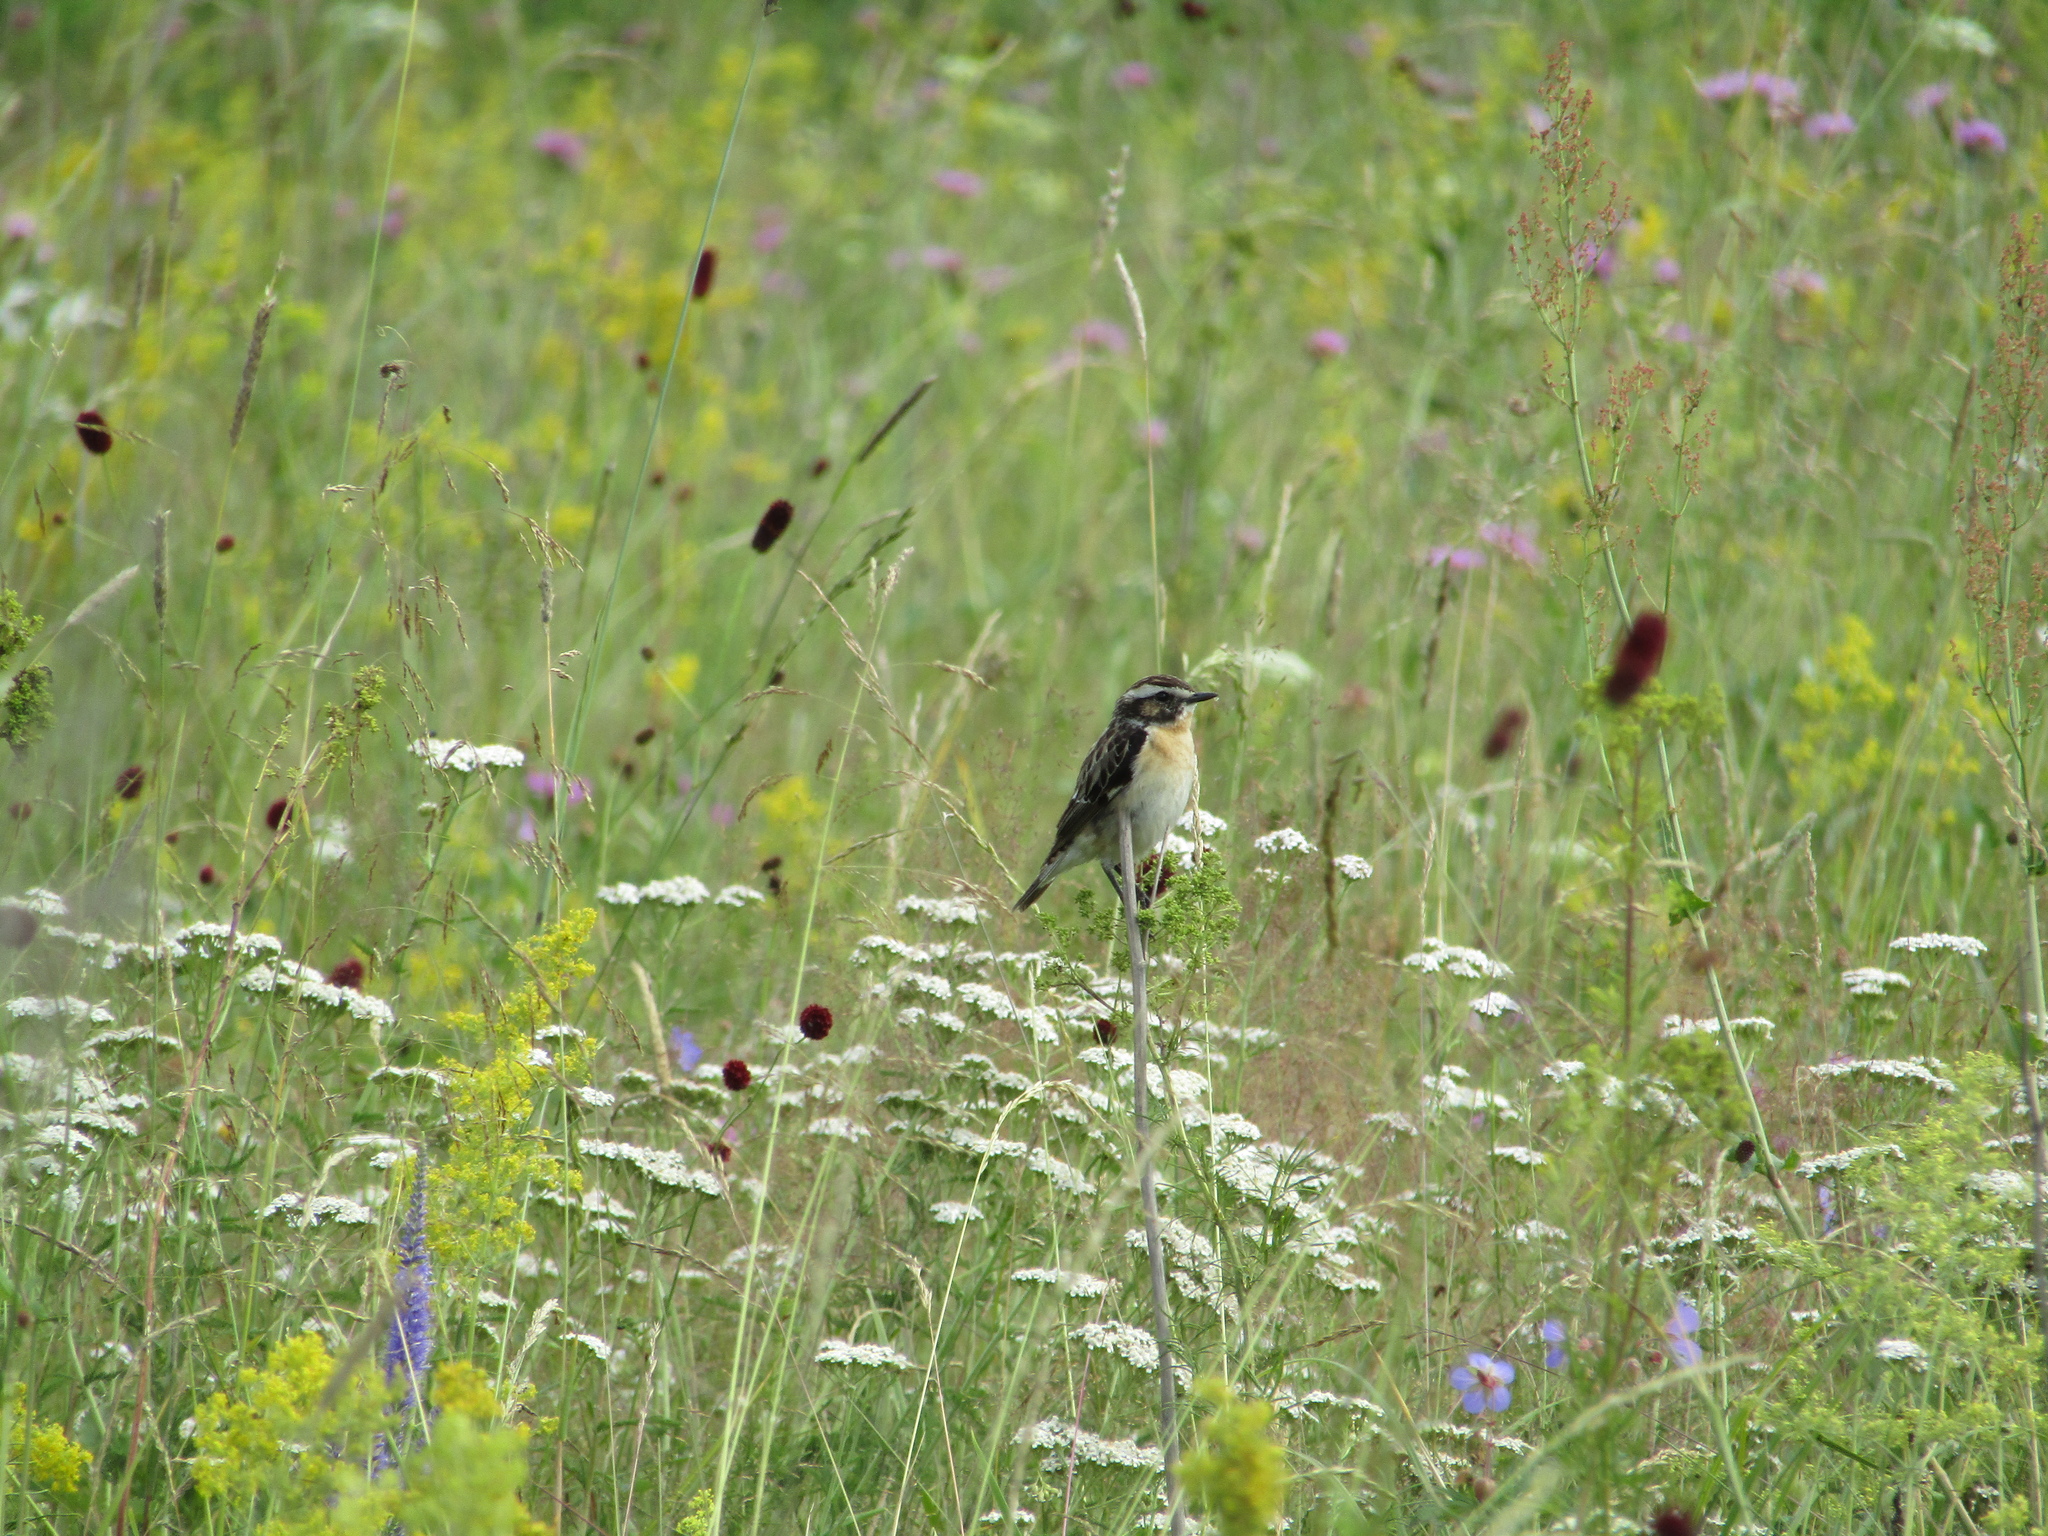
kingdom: Animalia
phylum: Chordata
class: Aves
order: Passeriformes
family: Muscicapidae
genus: Saxicola
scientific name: Saxicola rubetra
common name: Whinchat
